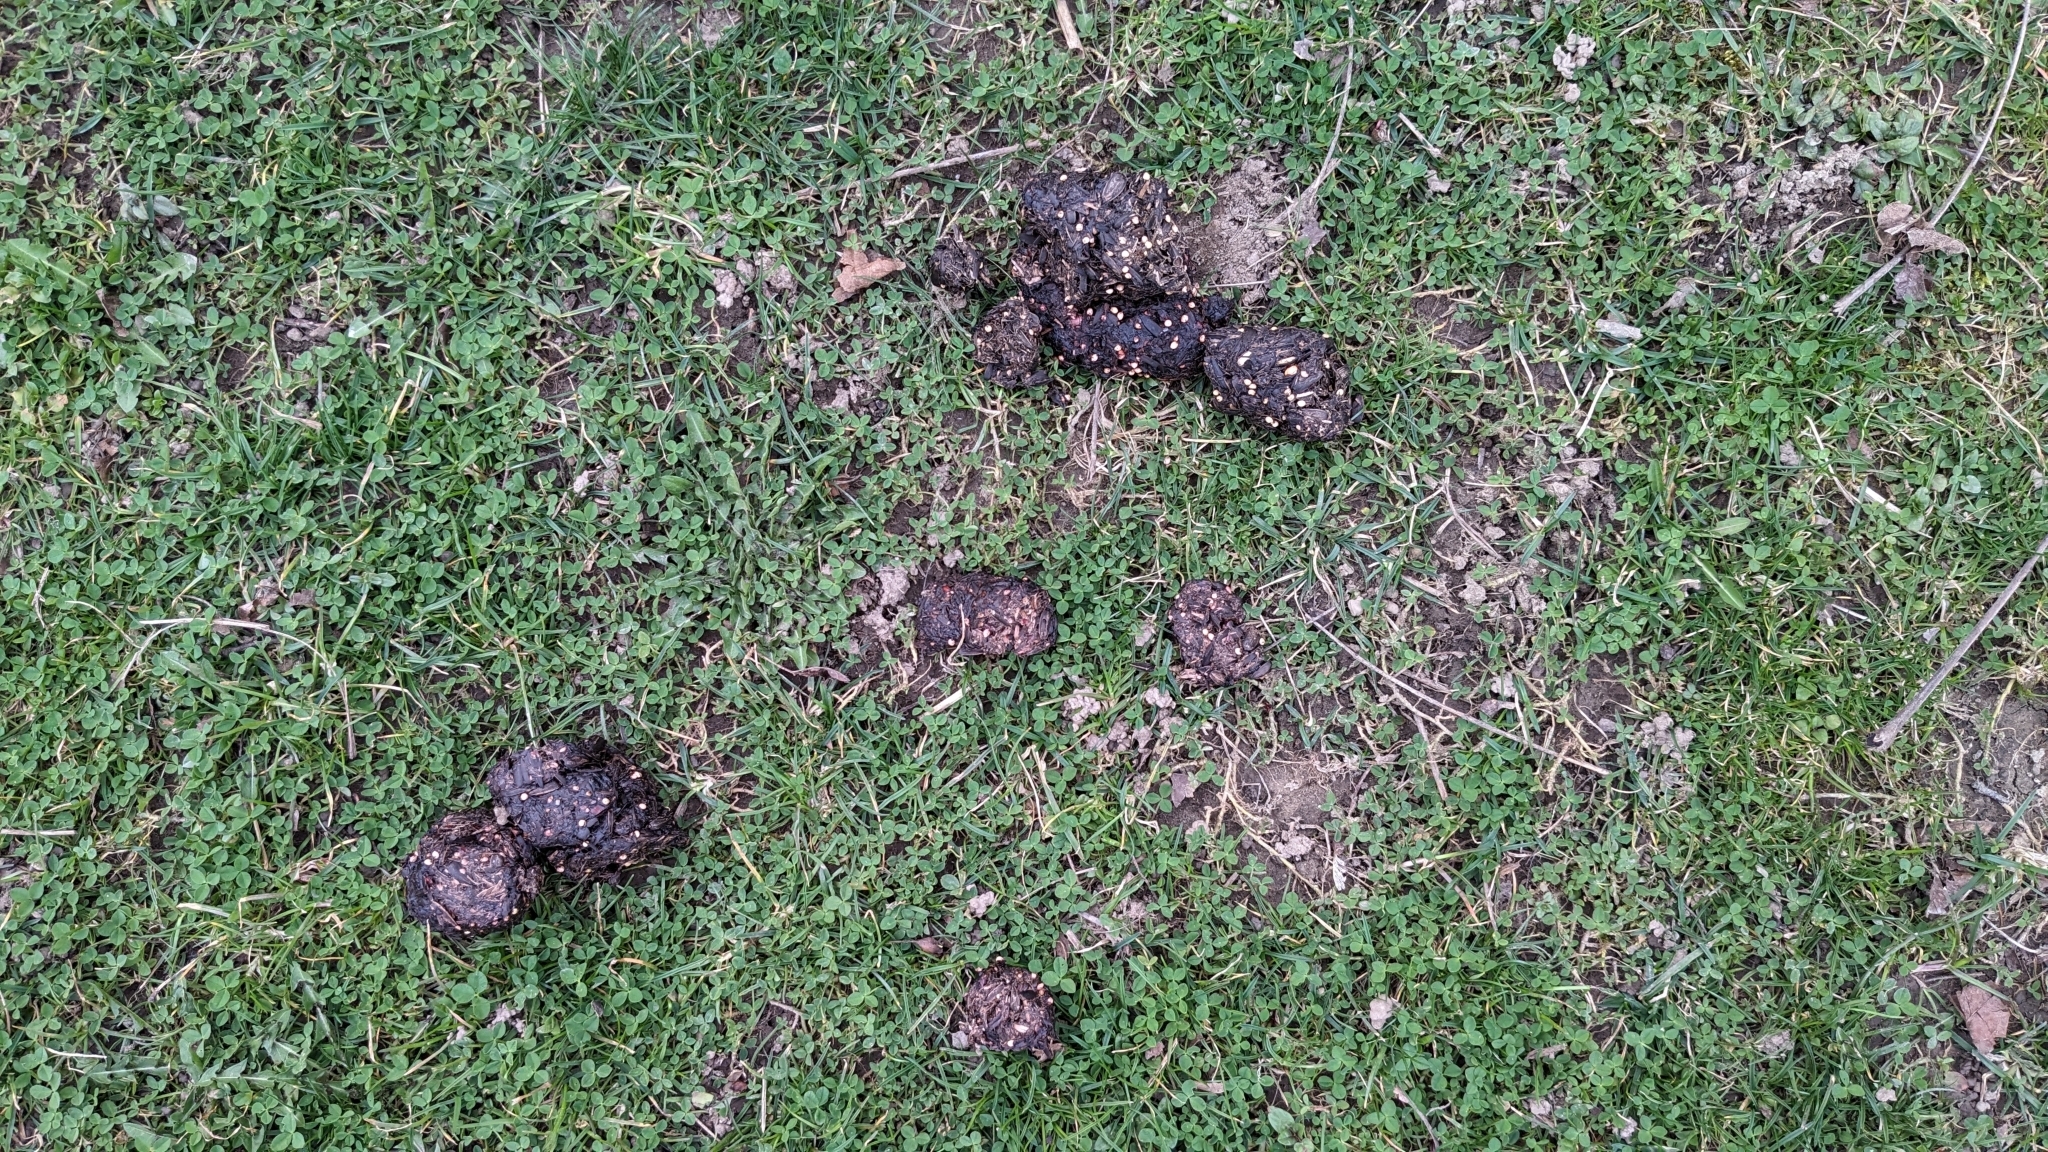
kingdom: Animalia
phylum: Chordata
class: Mammalia
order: Carnivora
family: Ursidae
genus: Ursus
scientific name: Ursus americanus
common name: American black bear
